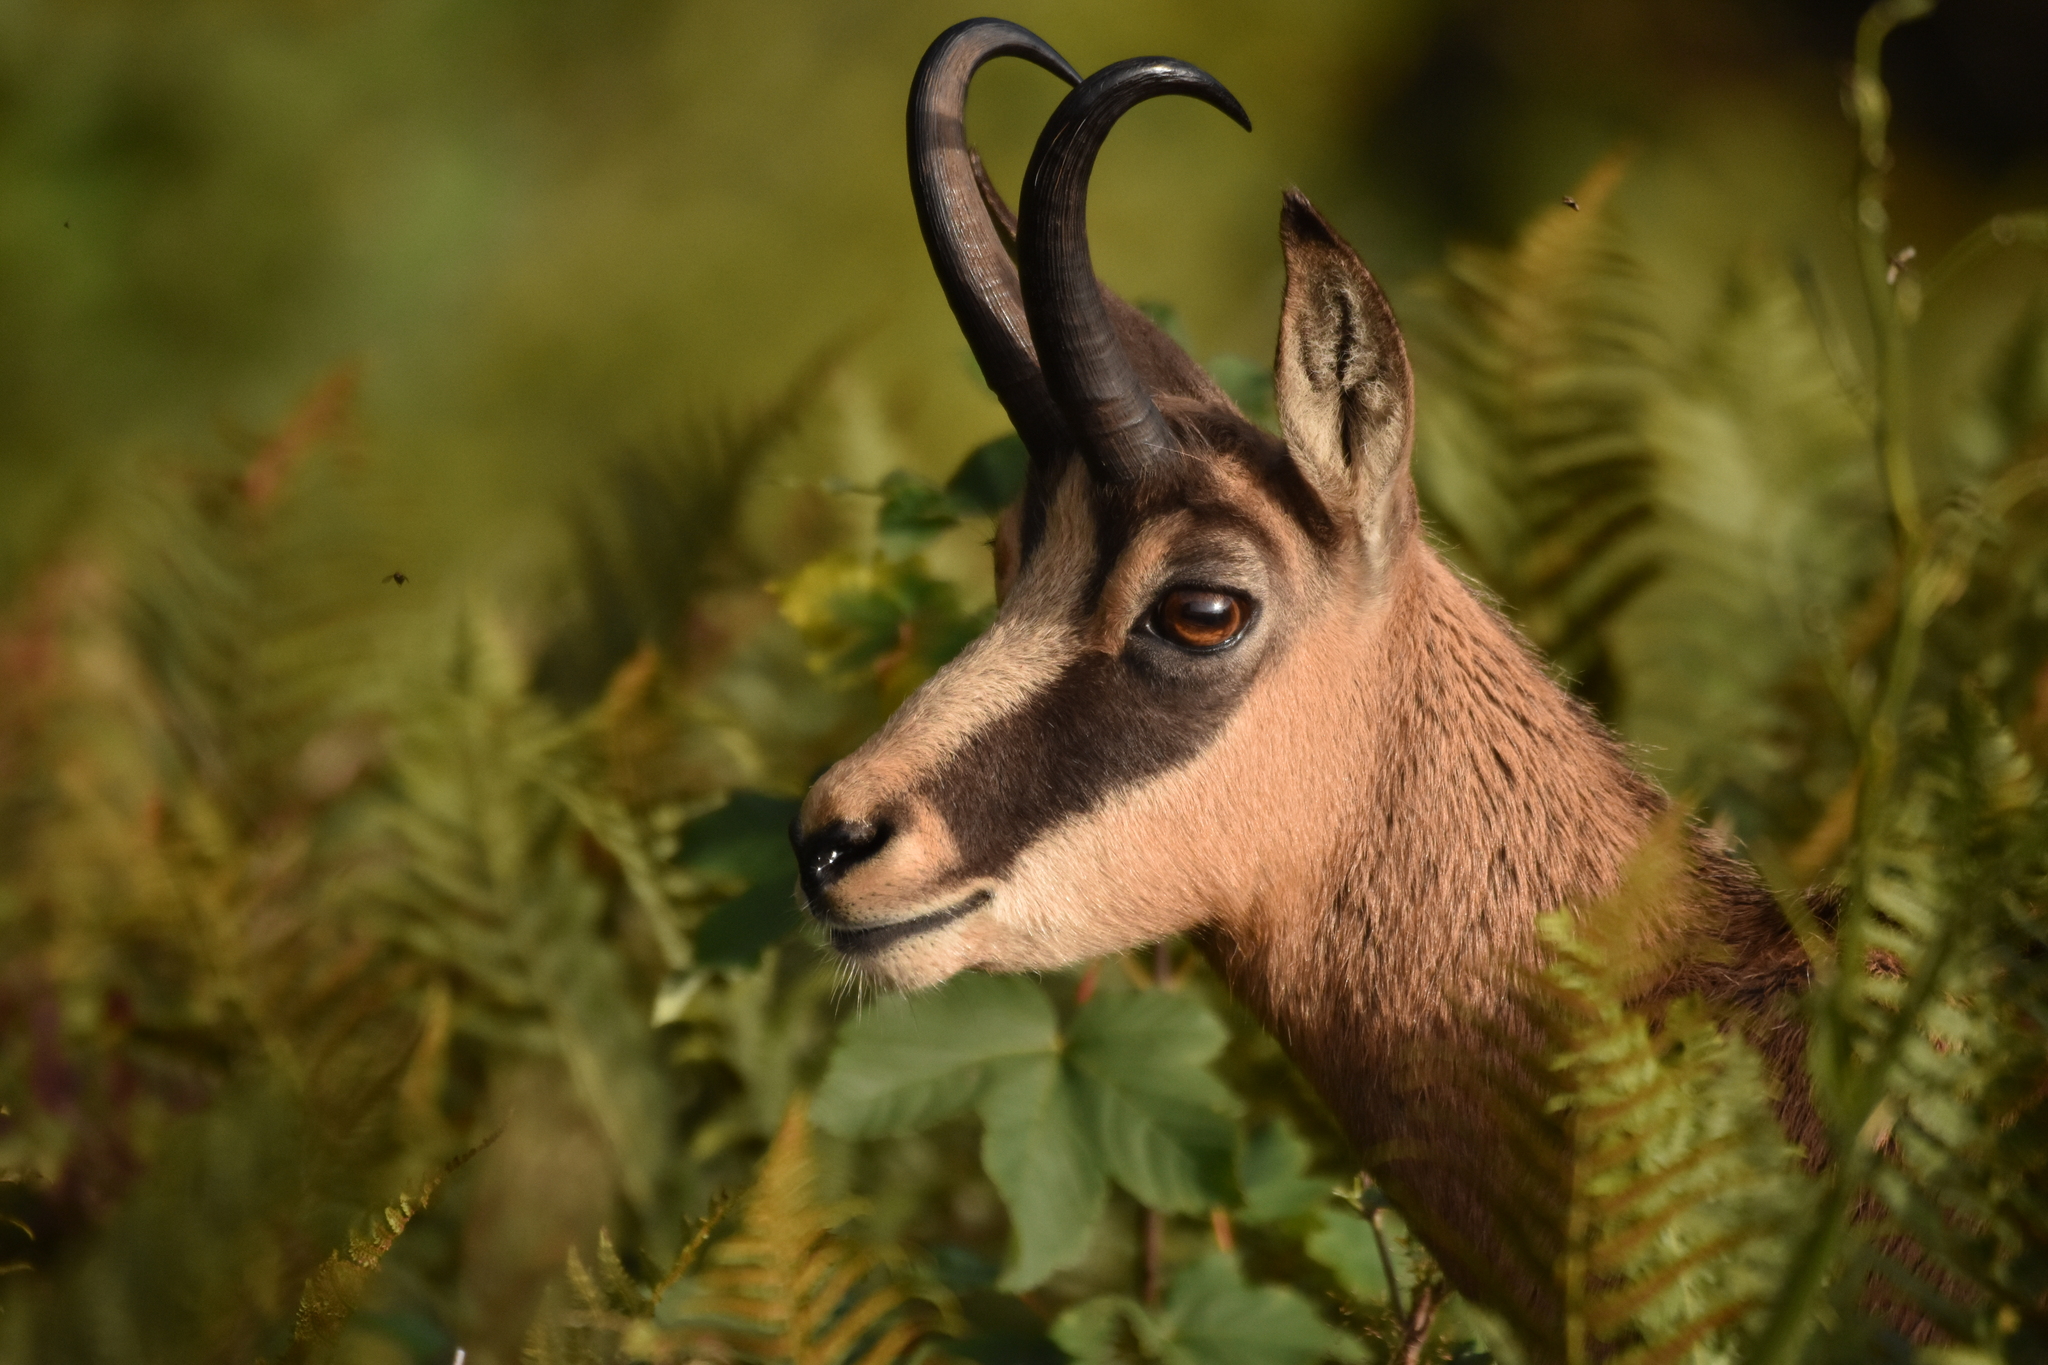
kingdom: Animalia
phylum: Chordata
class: Mammalia
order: Artiodactyla
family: Bovidae
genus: Rupicapra
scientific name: Rupicapra rupicapra
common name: Chamois
